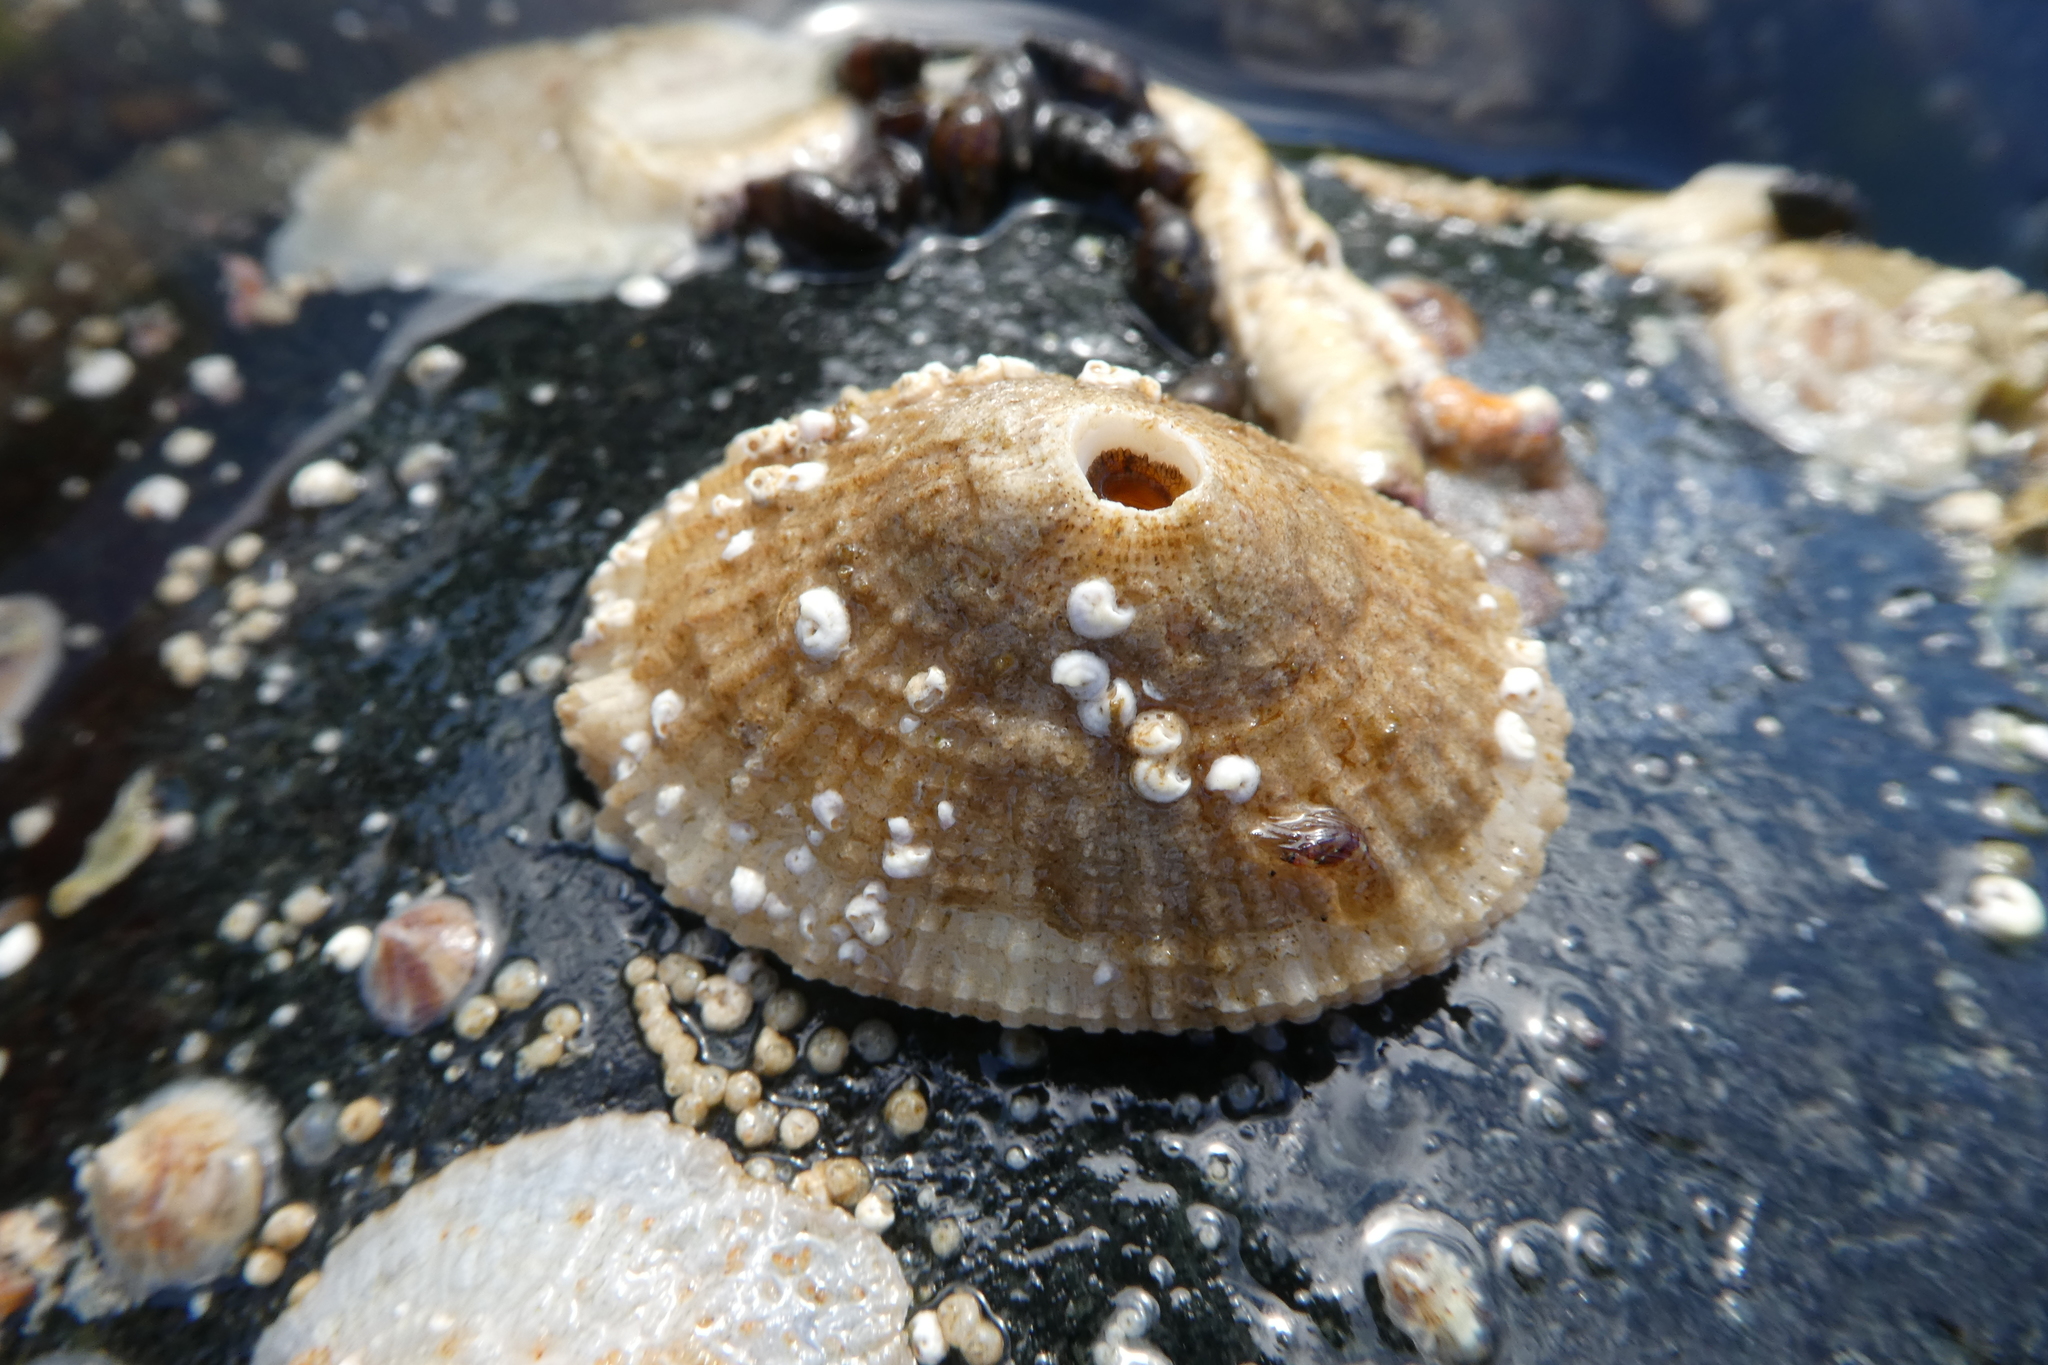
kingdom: Animalia
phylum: Mollusca
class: Gastropoda
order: Lepetellida
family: Fissurellidae
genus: Diodora
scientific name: Diodora aspera
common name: Rough keyhole limpet
